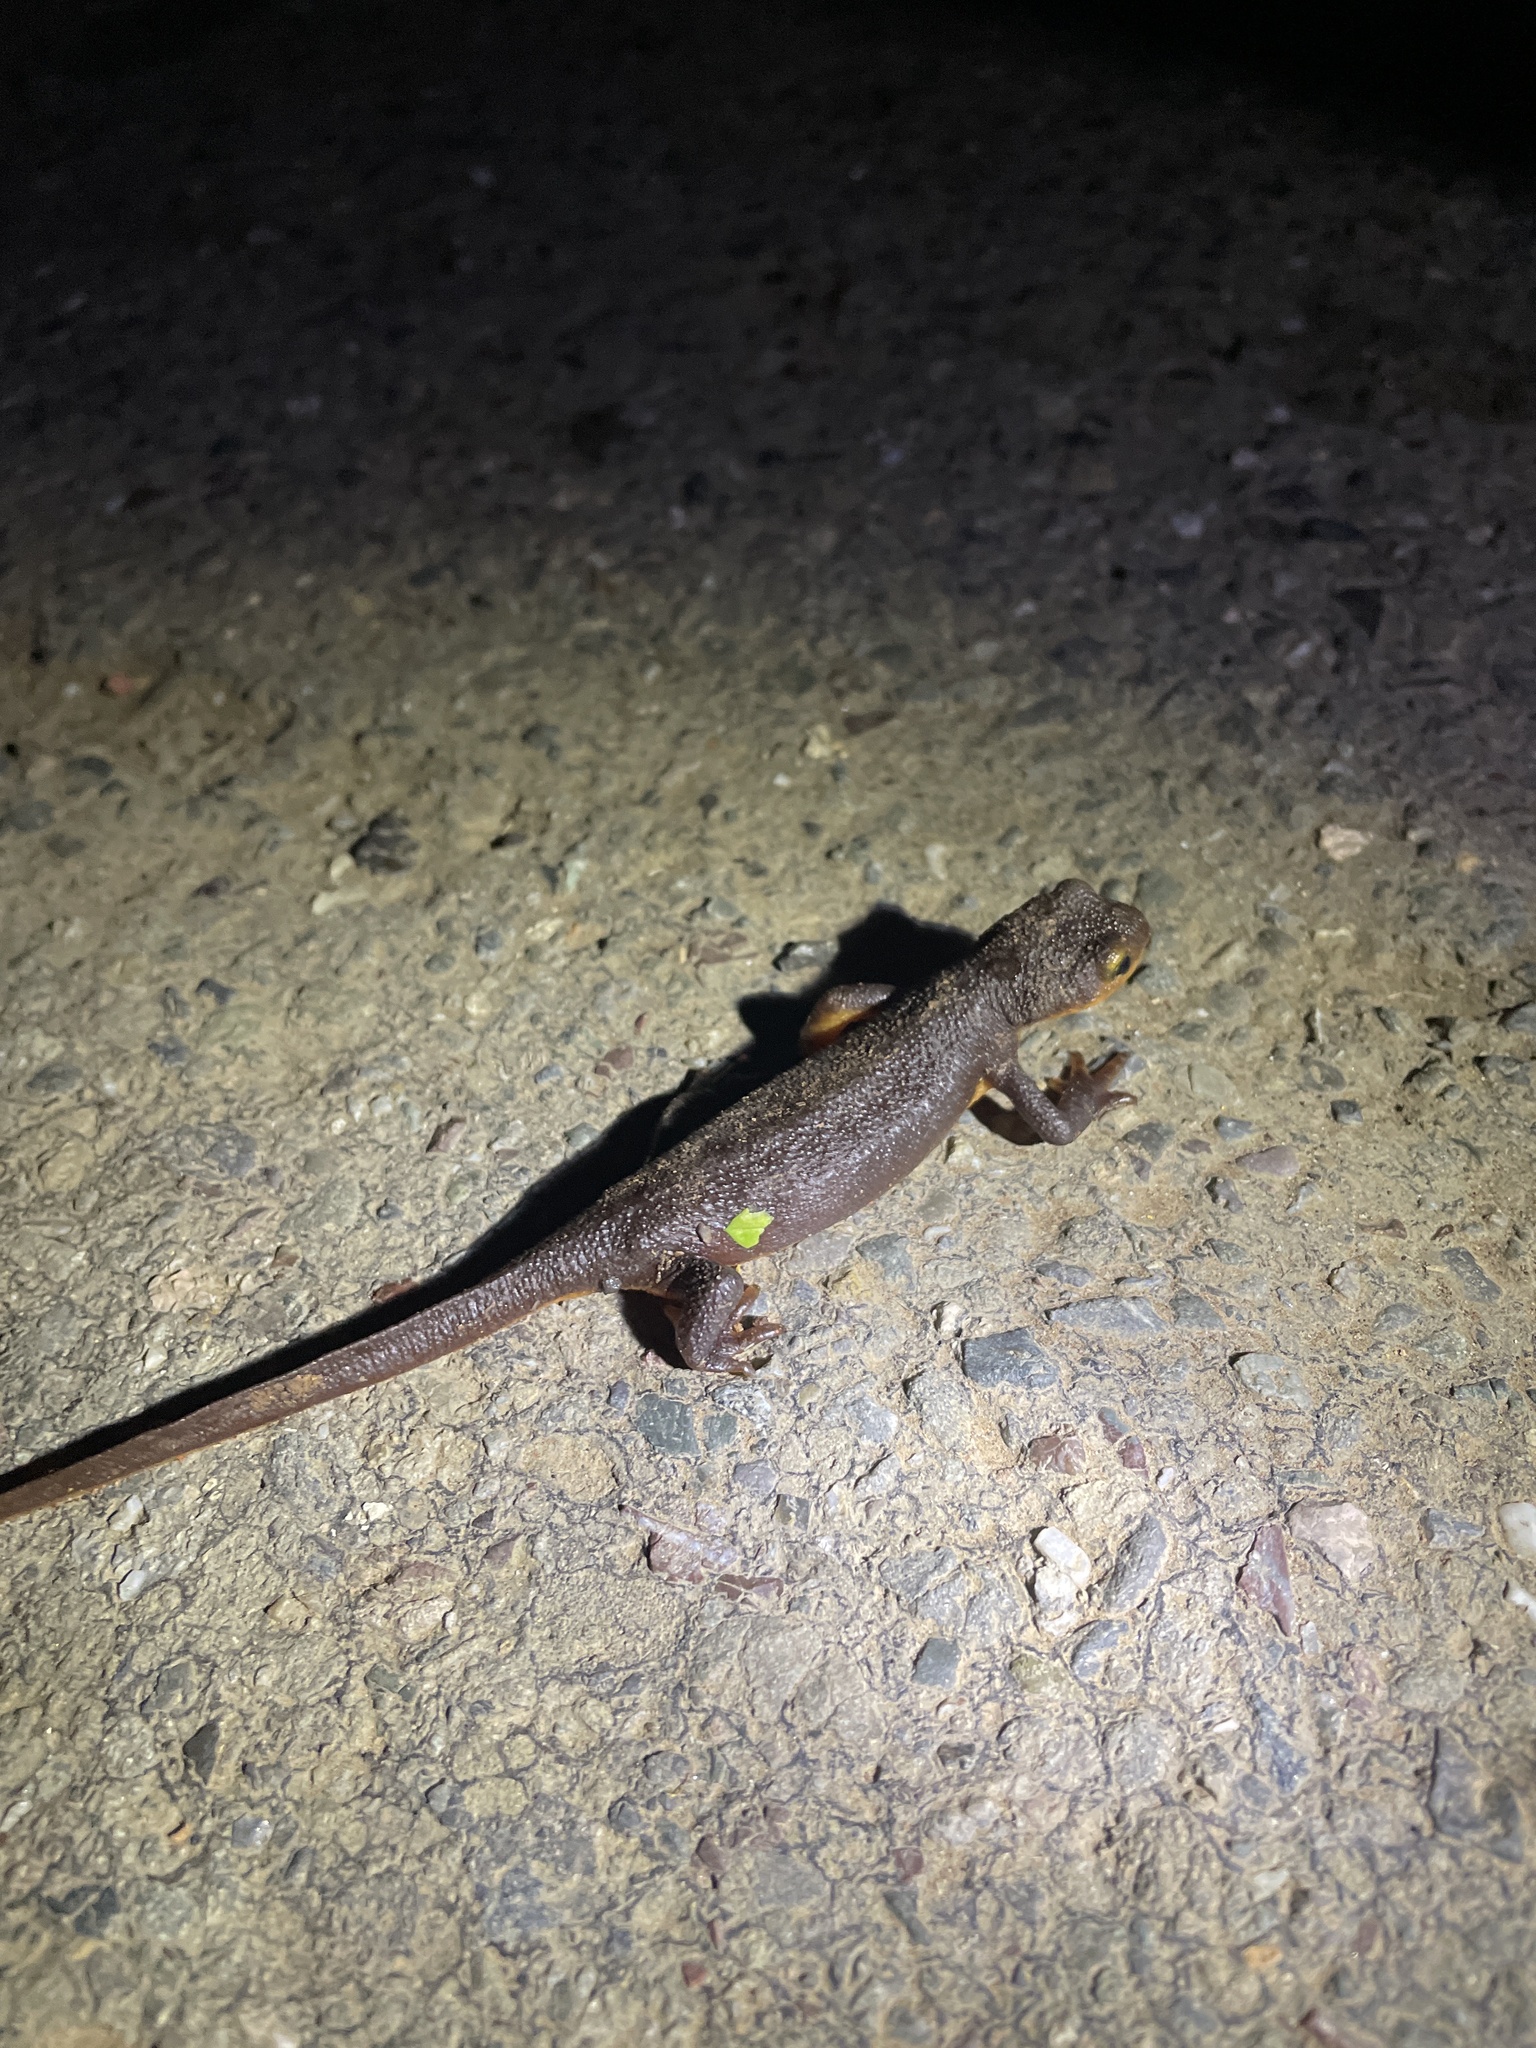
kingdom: Animalia
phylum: Chordata
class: Amphibia
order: Caudata
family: Salamandridae
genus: Taricha
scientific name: Taricha torosa
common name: California newt
